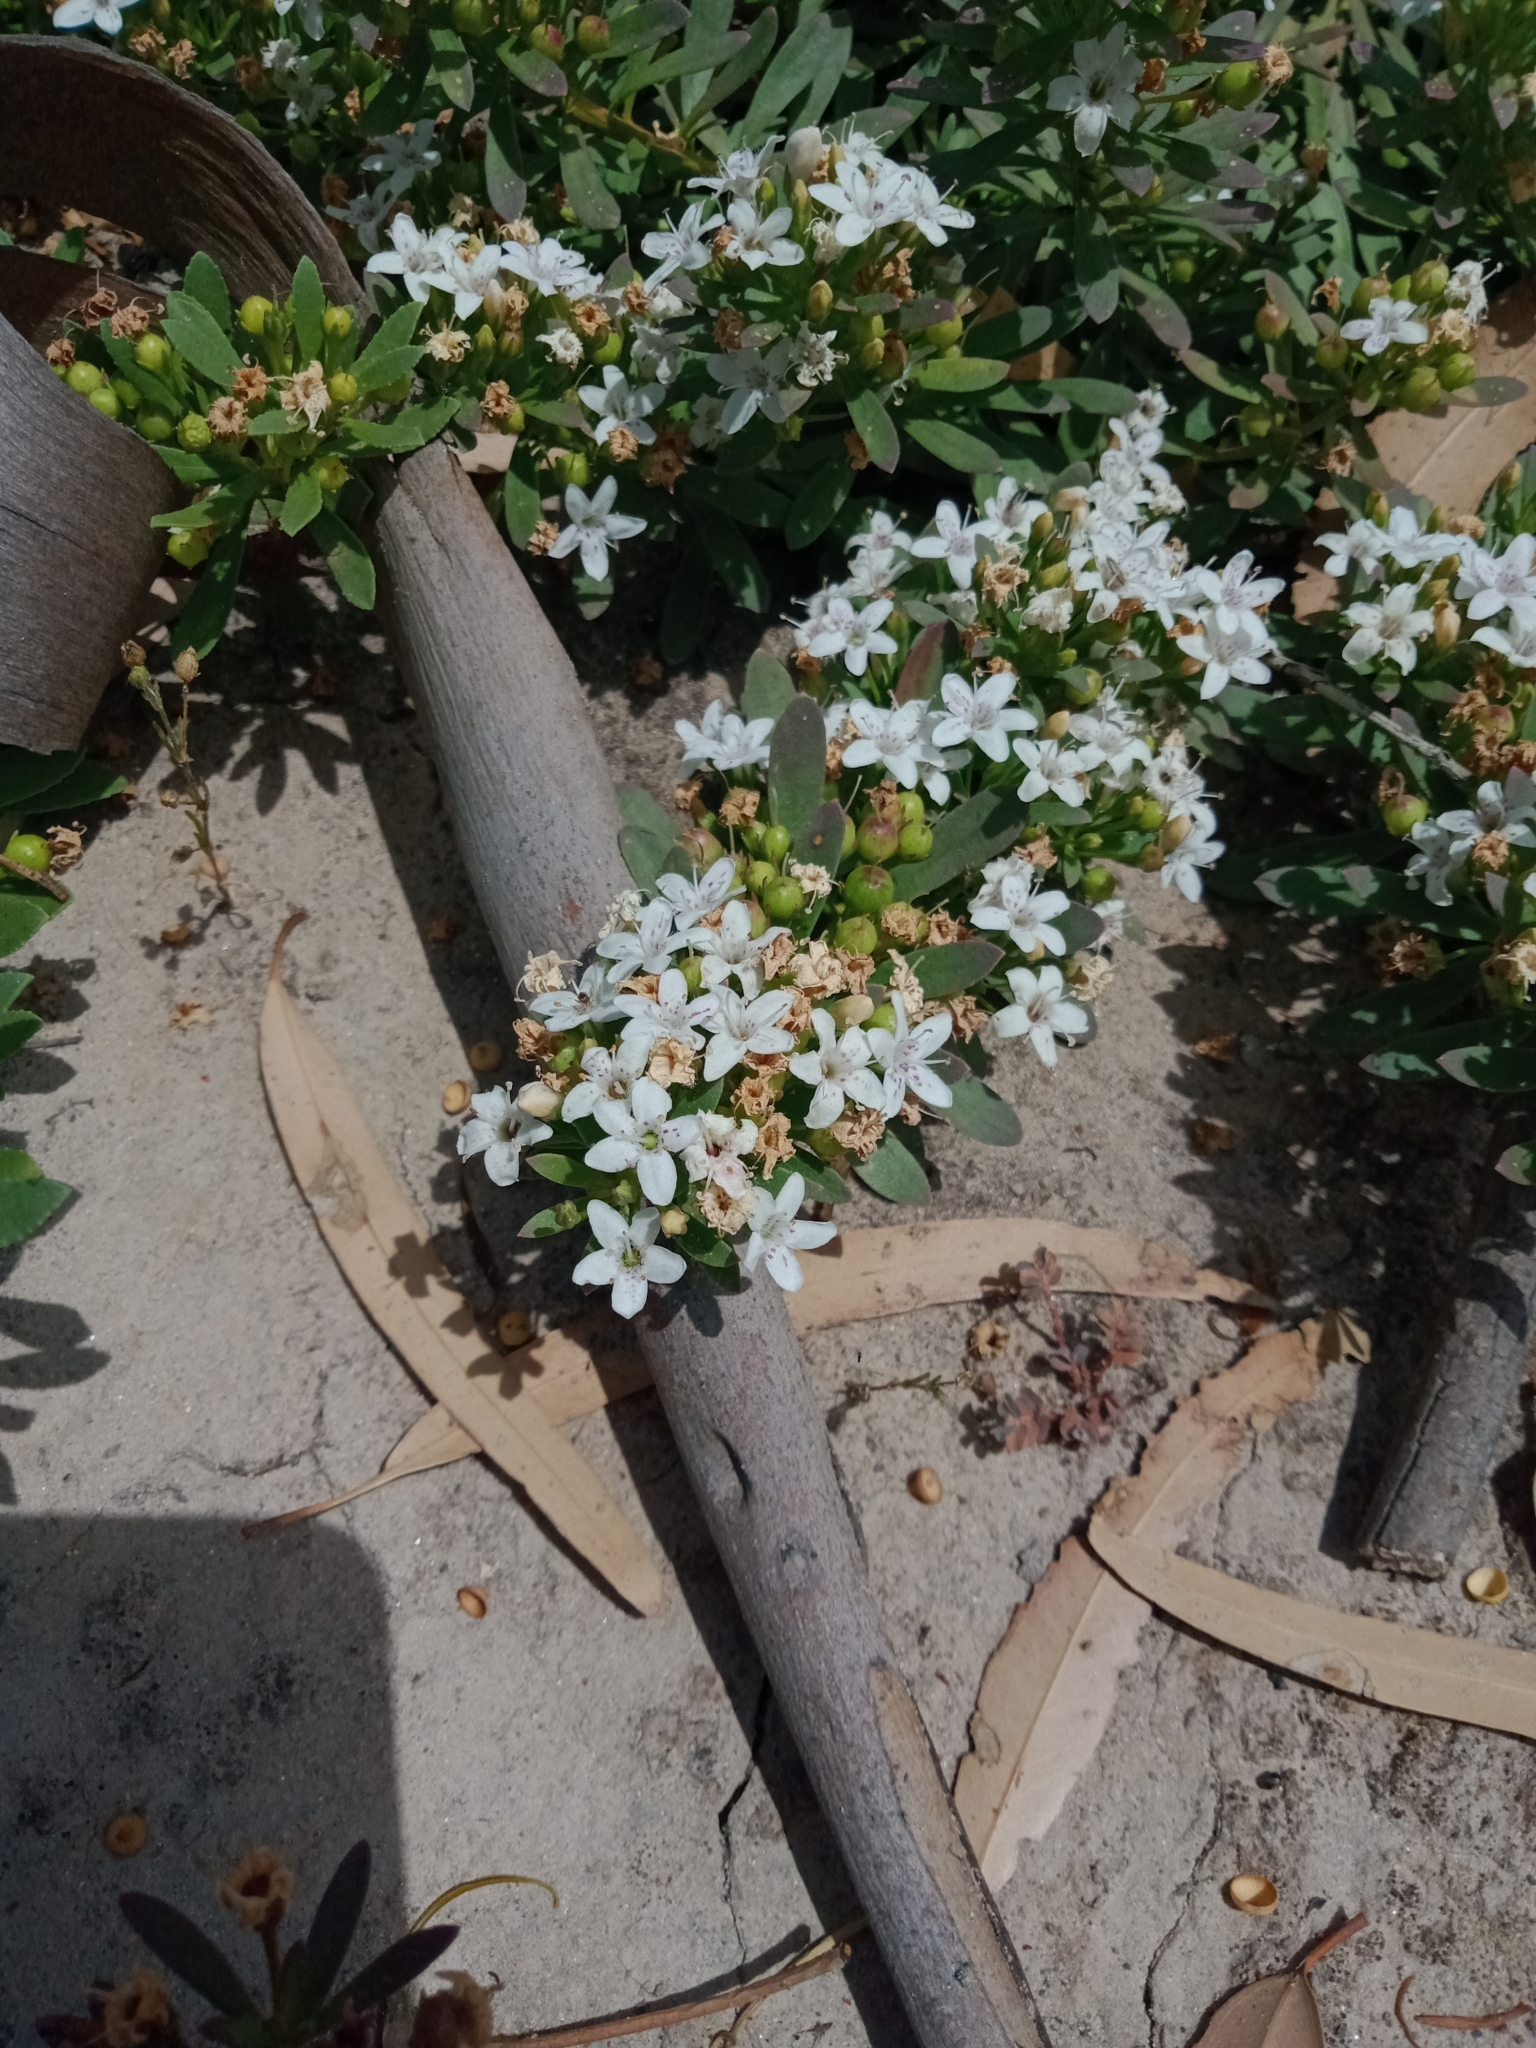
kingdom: Plantae
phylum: Tracheophyta
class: Magnoliopsida
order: Lamiales
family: Scrophulariaceae
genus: Myoporum
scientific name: Myoporum parvifolium
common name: Dwarf native-myrtle
